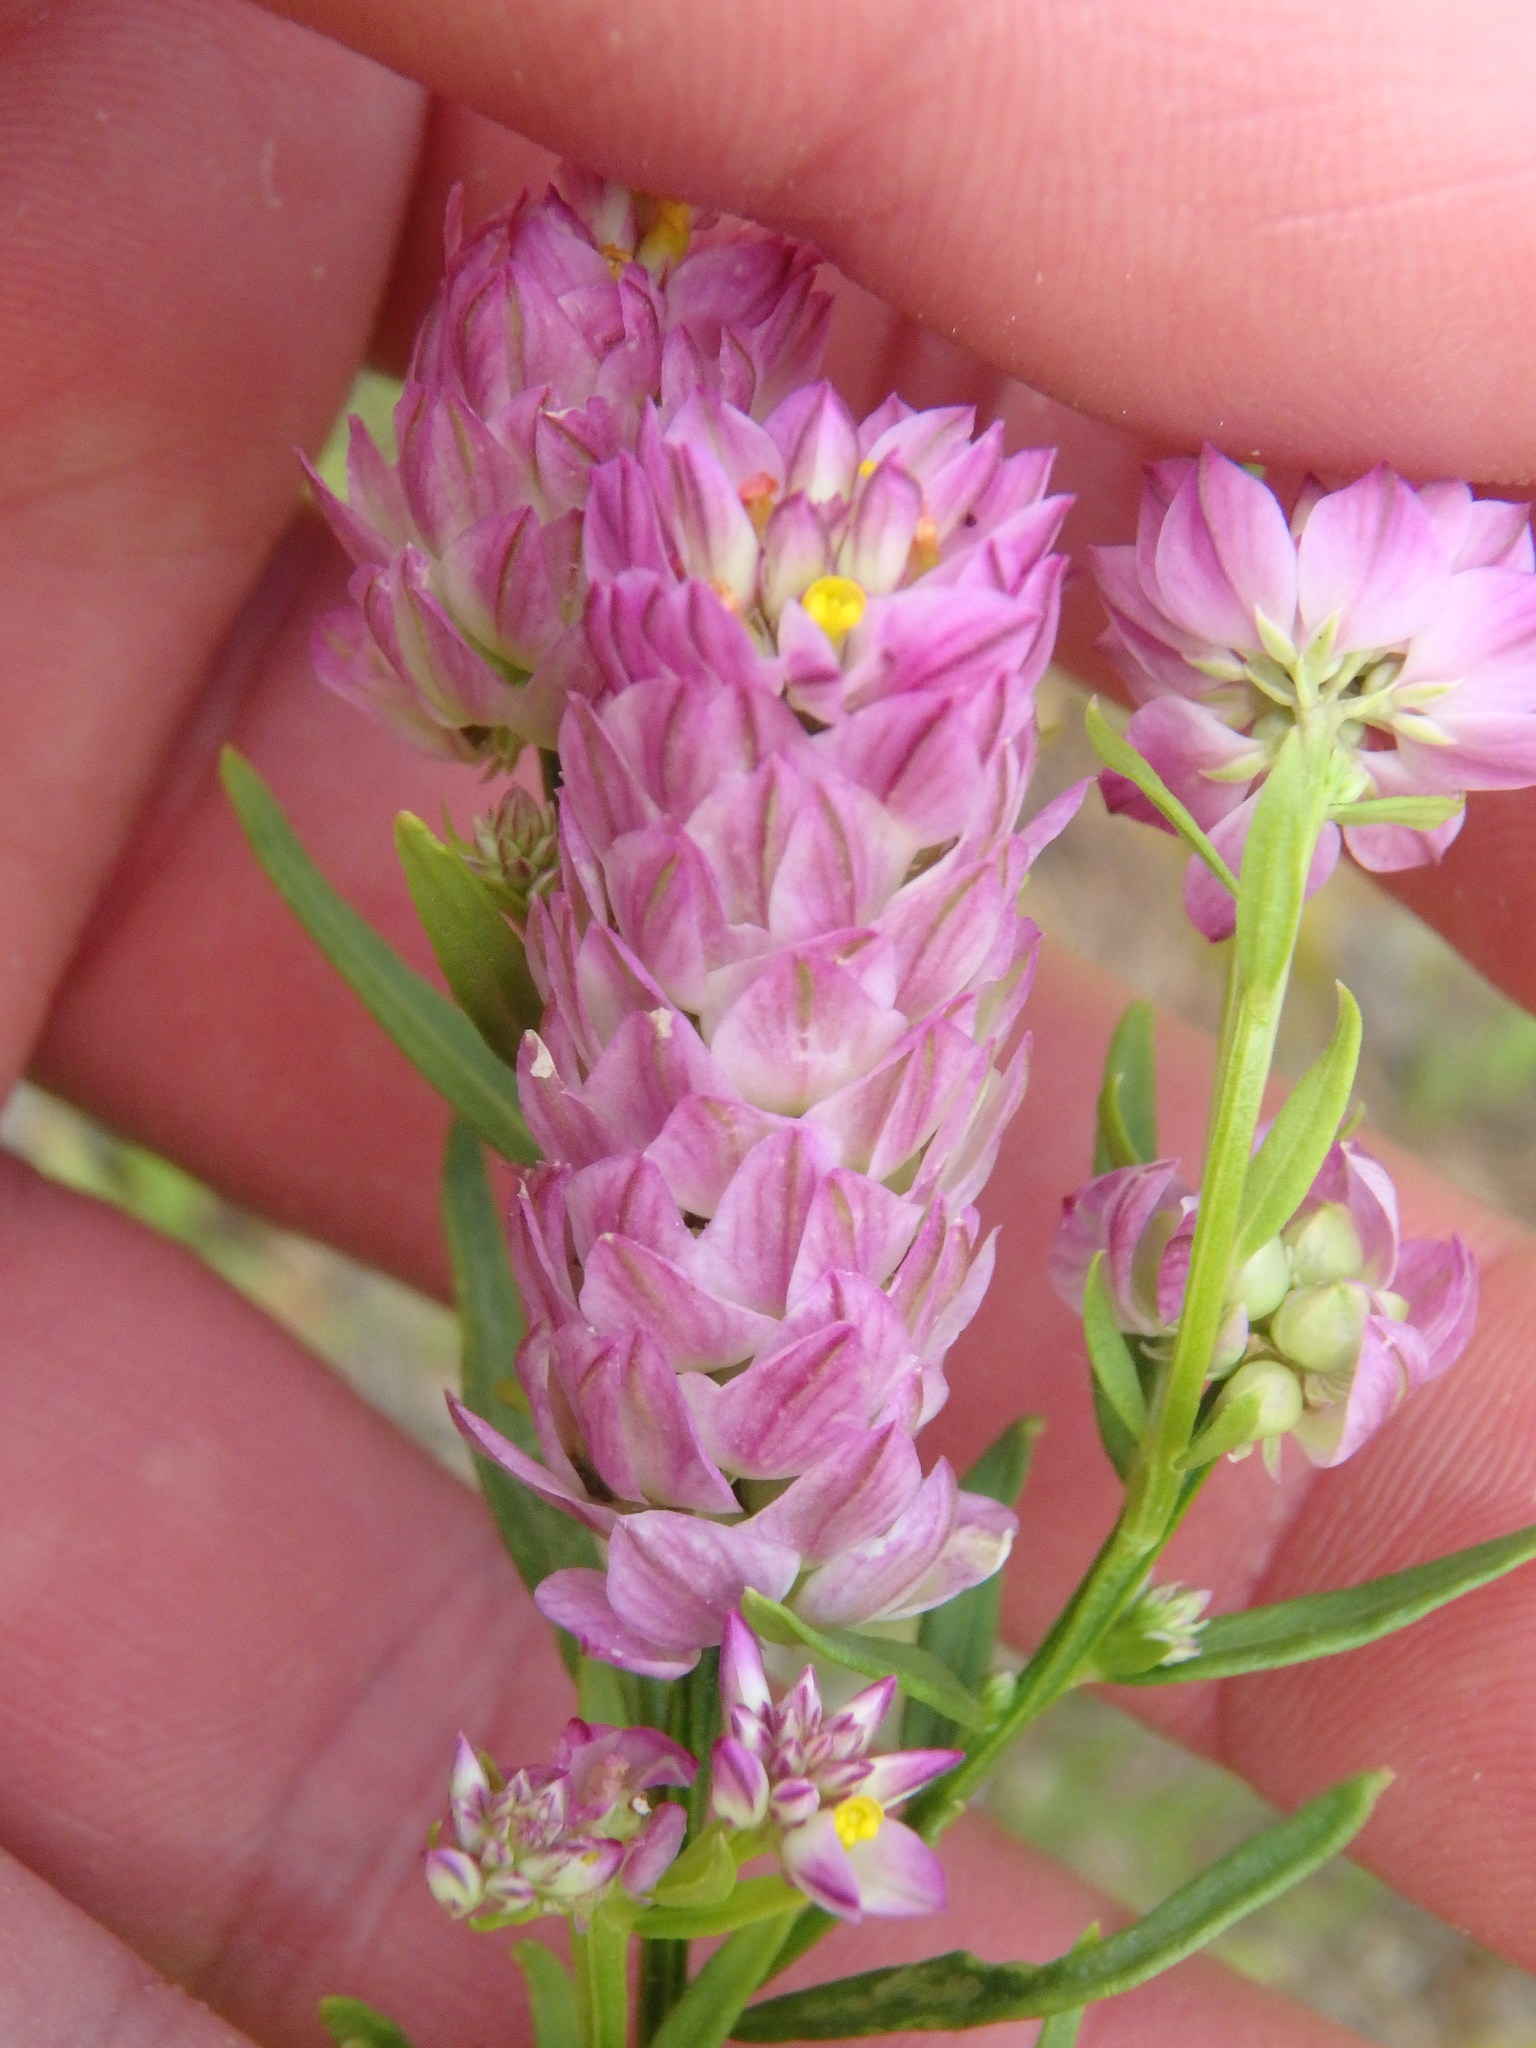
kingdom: Plantae
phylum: Tracheophyta
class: Magnoliopsida
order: Fabales
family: Polygalaceae
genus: Polygala
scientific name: Polygala sanguinea
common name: Blood milkwort
